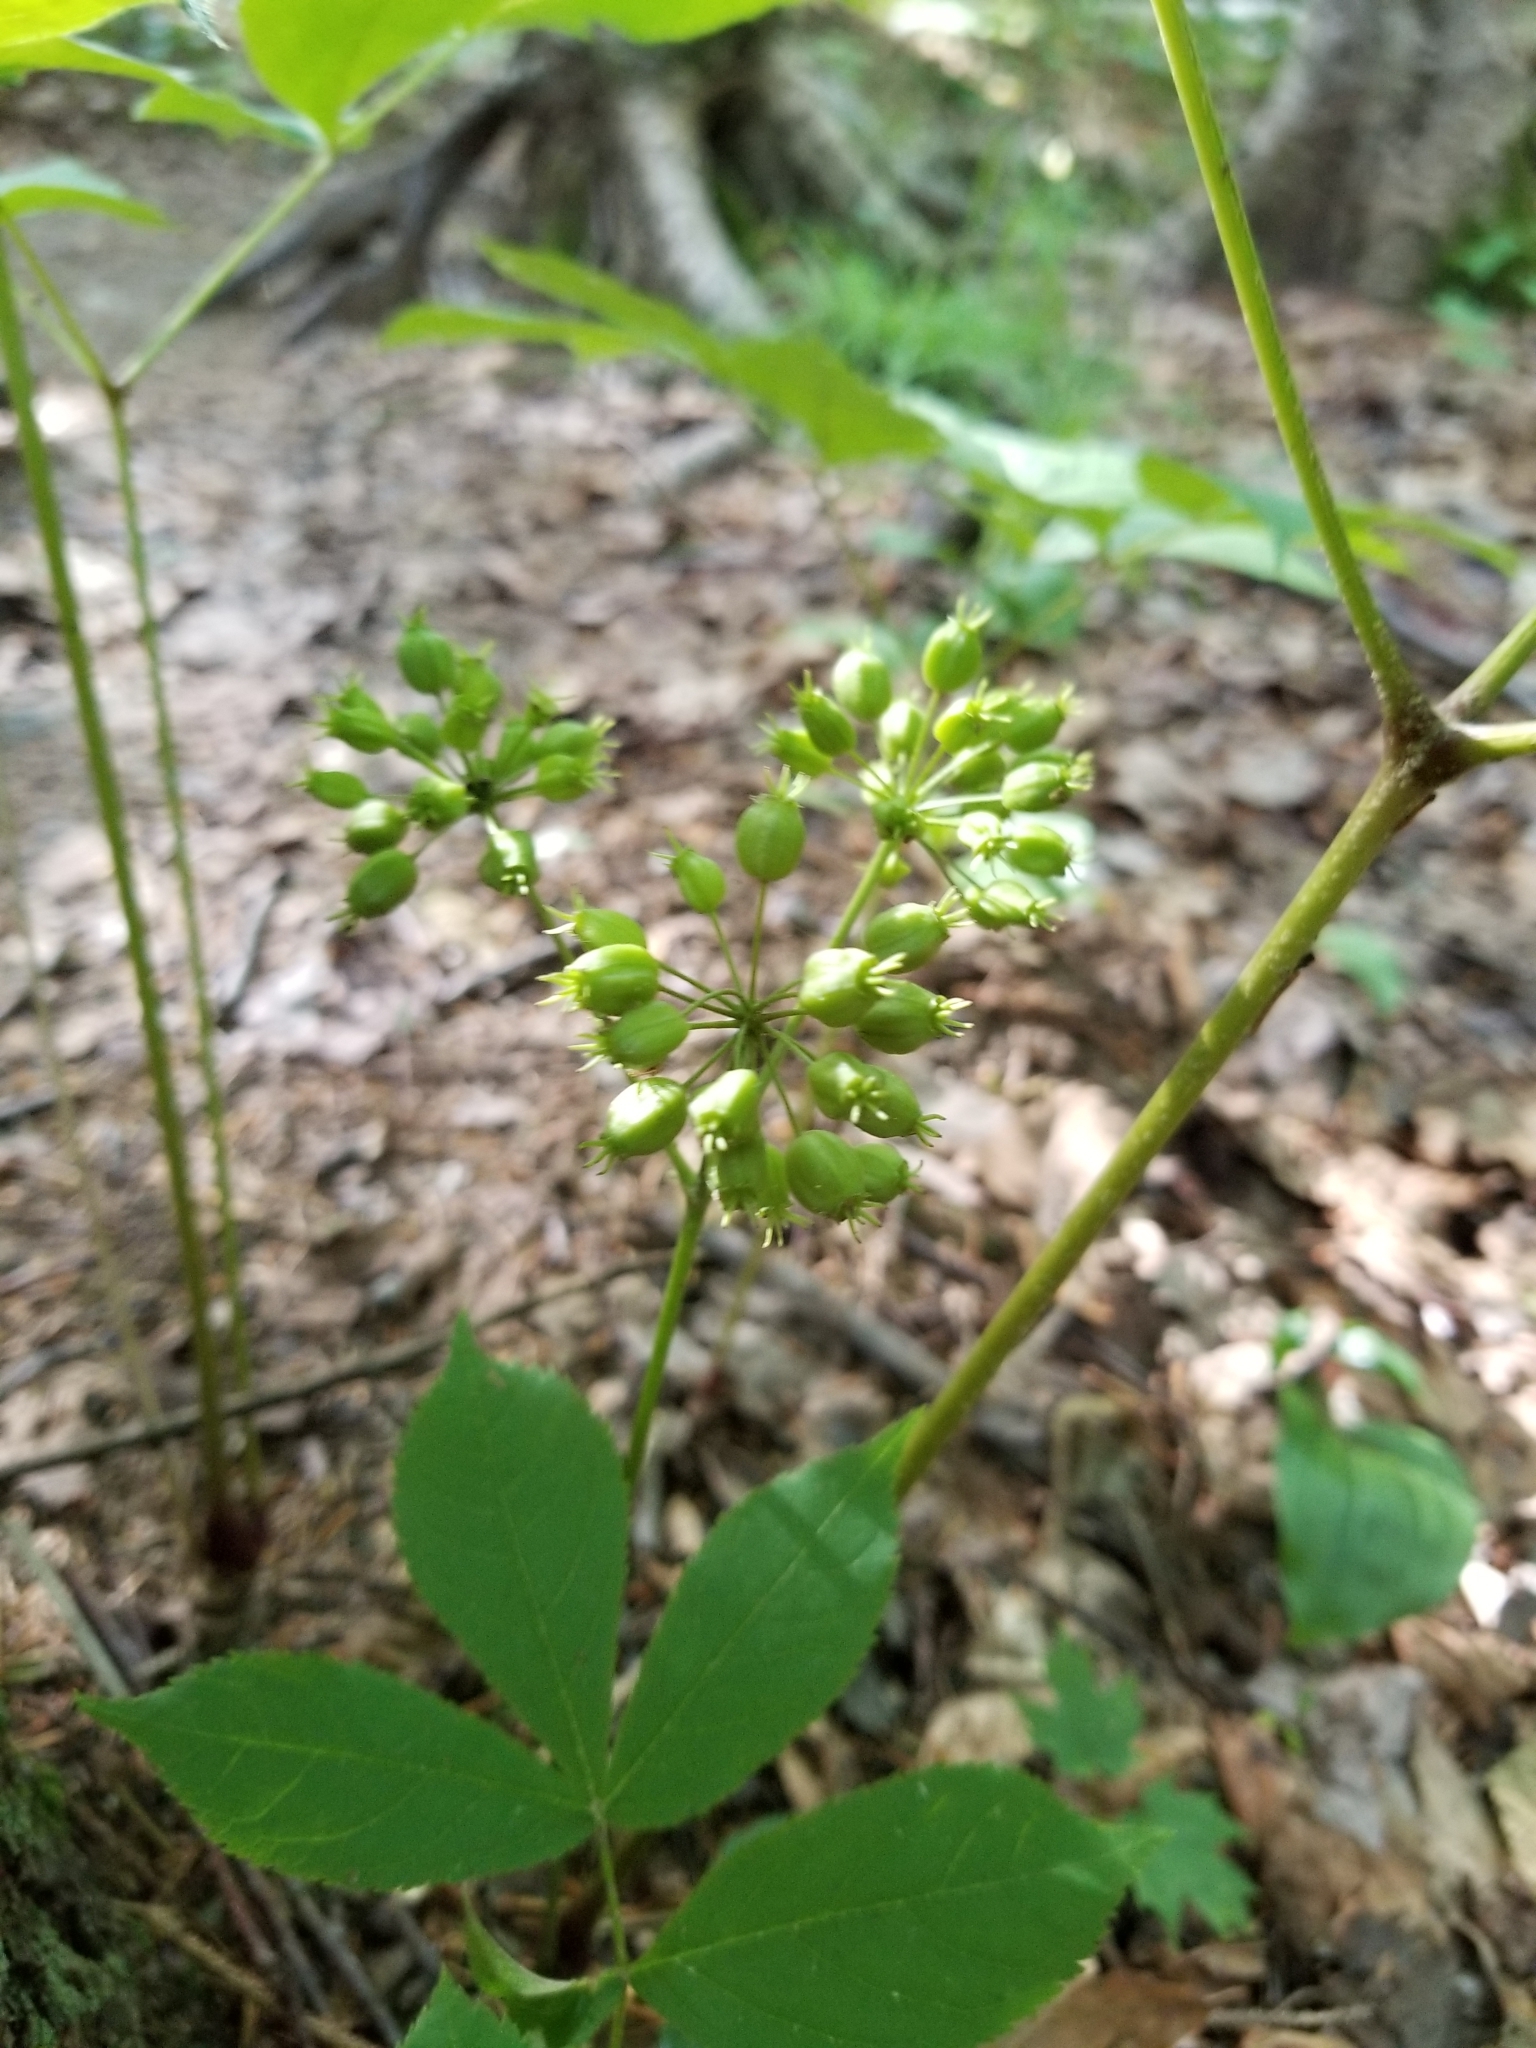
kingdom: Plantae
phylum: Tracheophyta
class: Magnoliopsida
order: Apiales
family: Araliaceae
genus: Aralia
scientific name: Aralia nudicaulis
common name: Wild sarsaparilla
